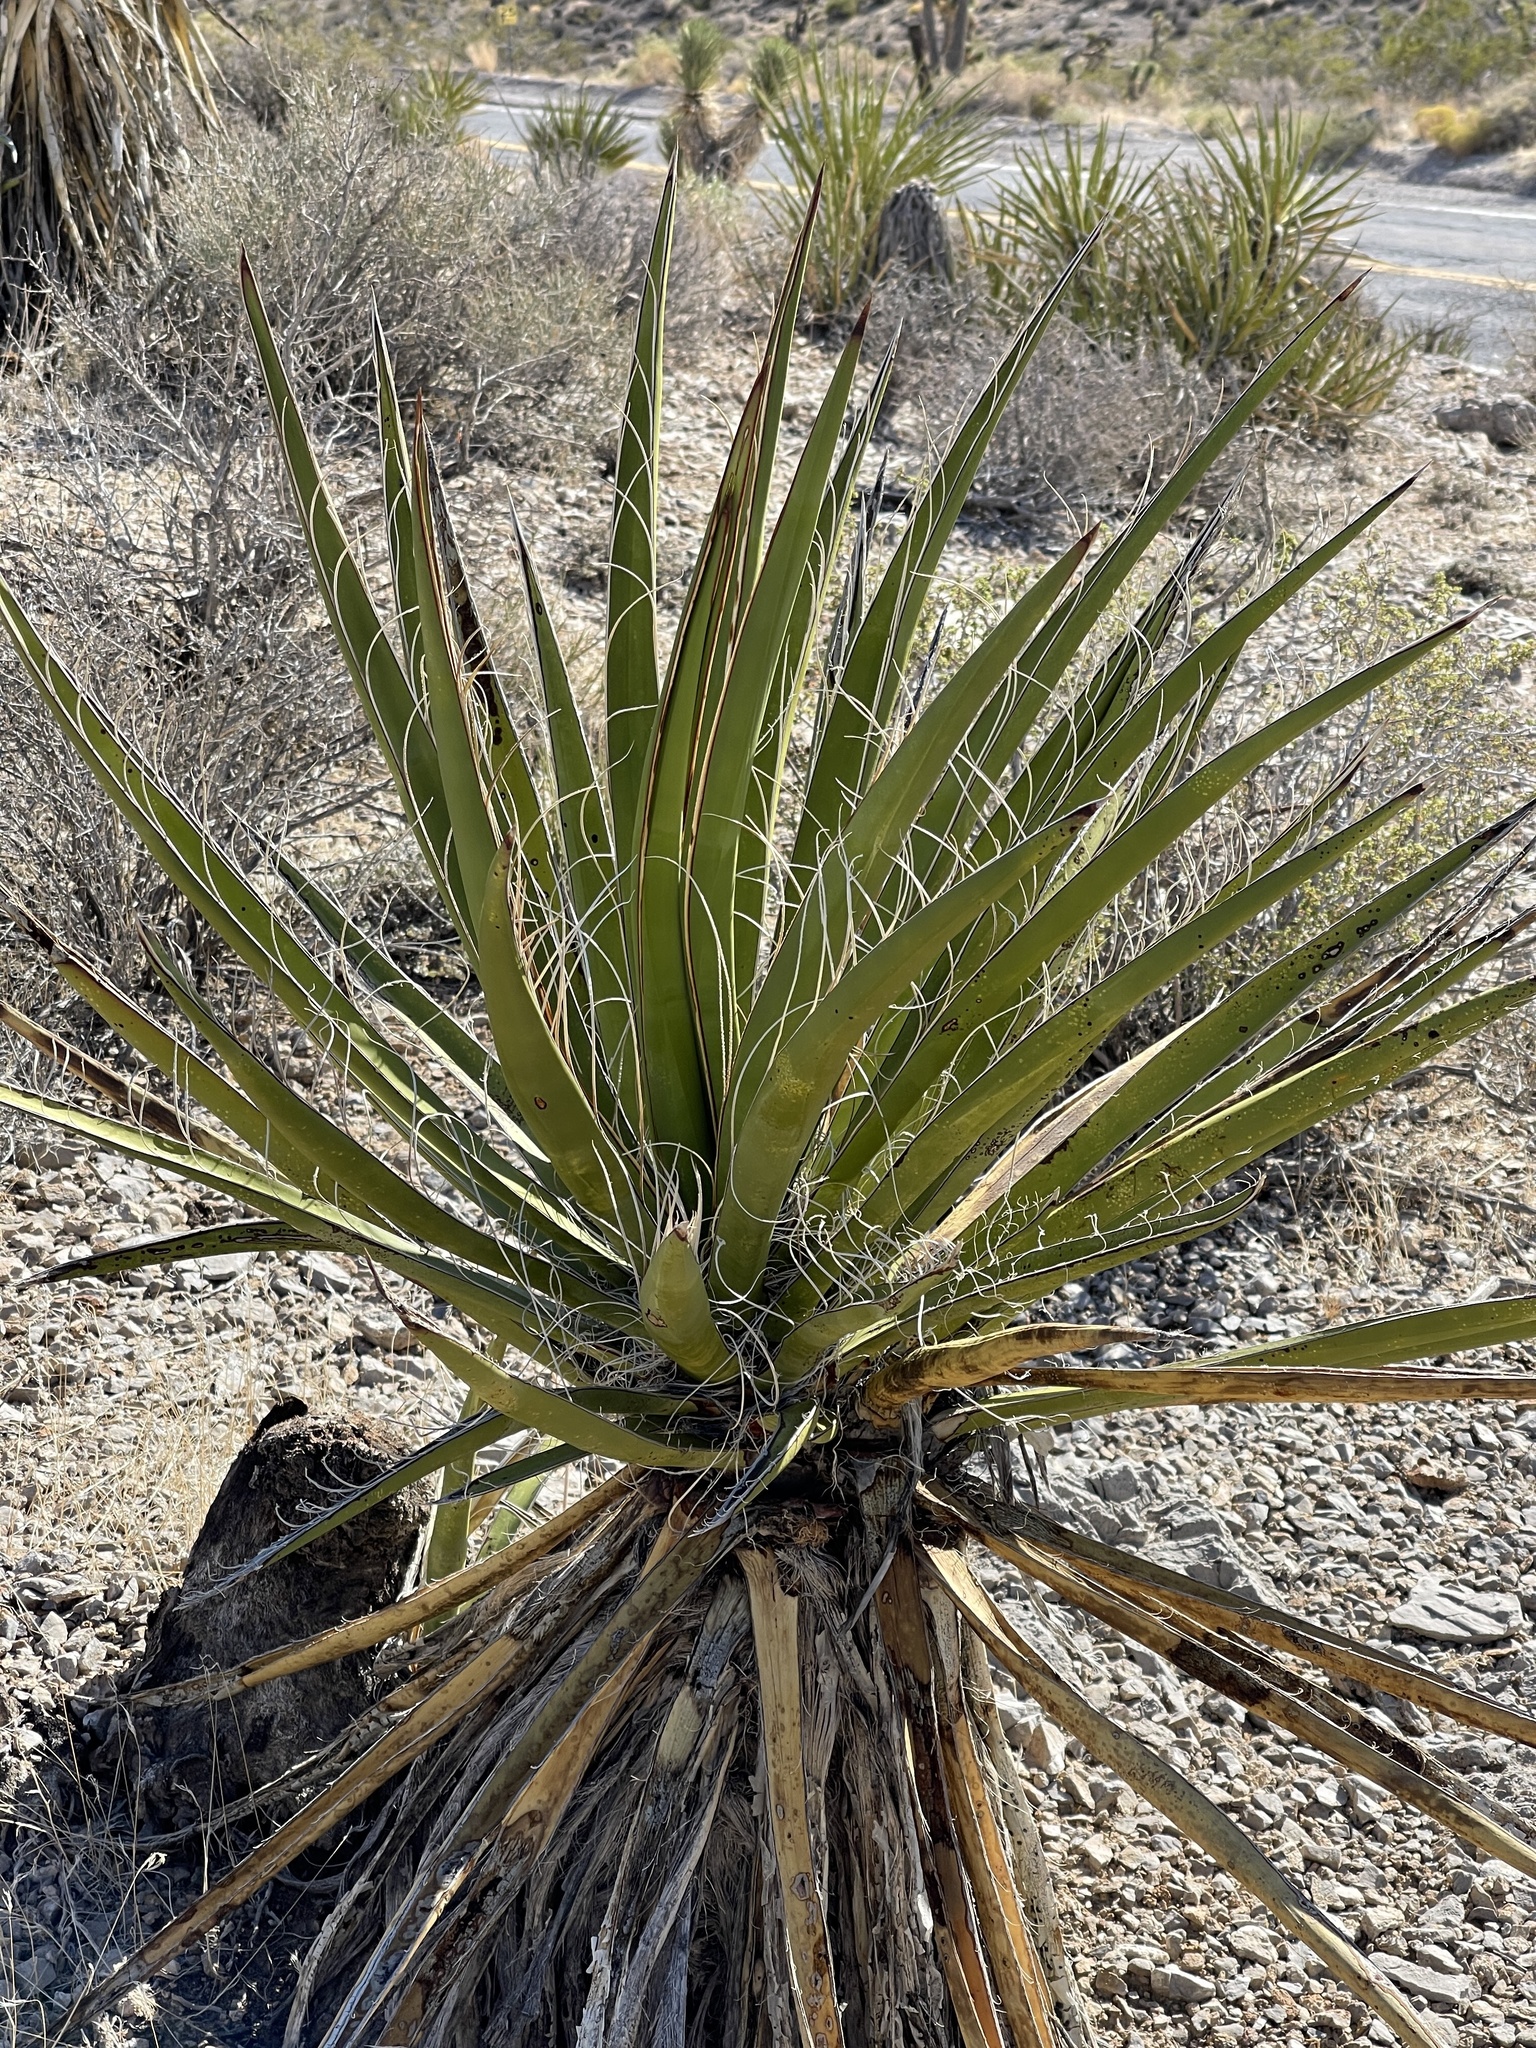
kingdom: Plantae
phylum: Tracheophyta
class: Liliopsida
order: Asparagales
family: Asparagaceae
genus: Yucca
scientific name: Yucca schidigera
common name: Mojave yucca
